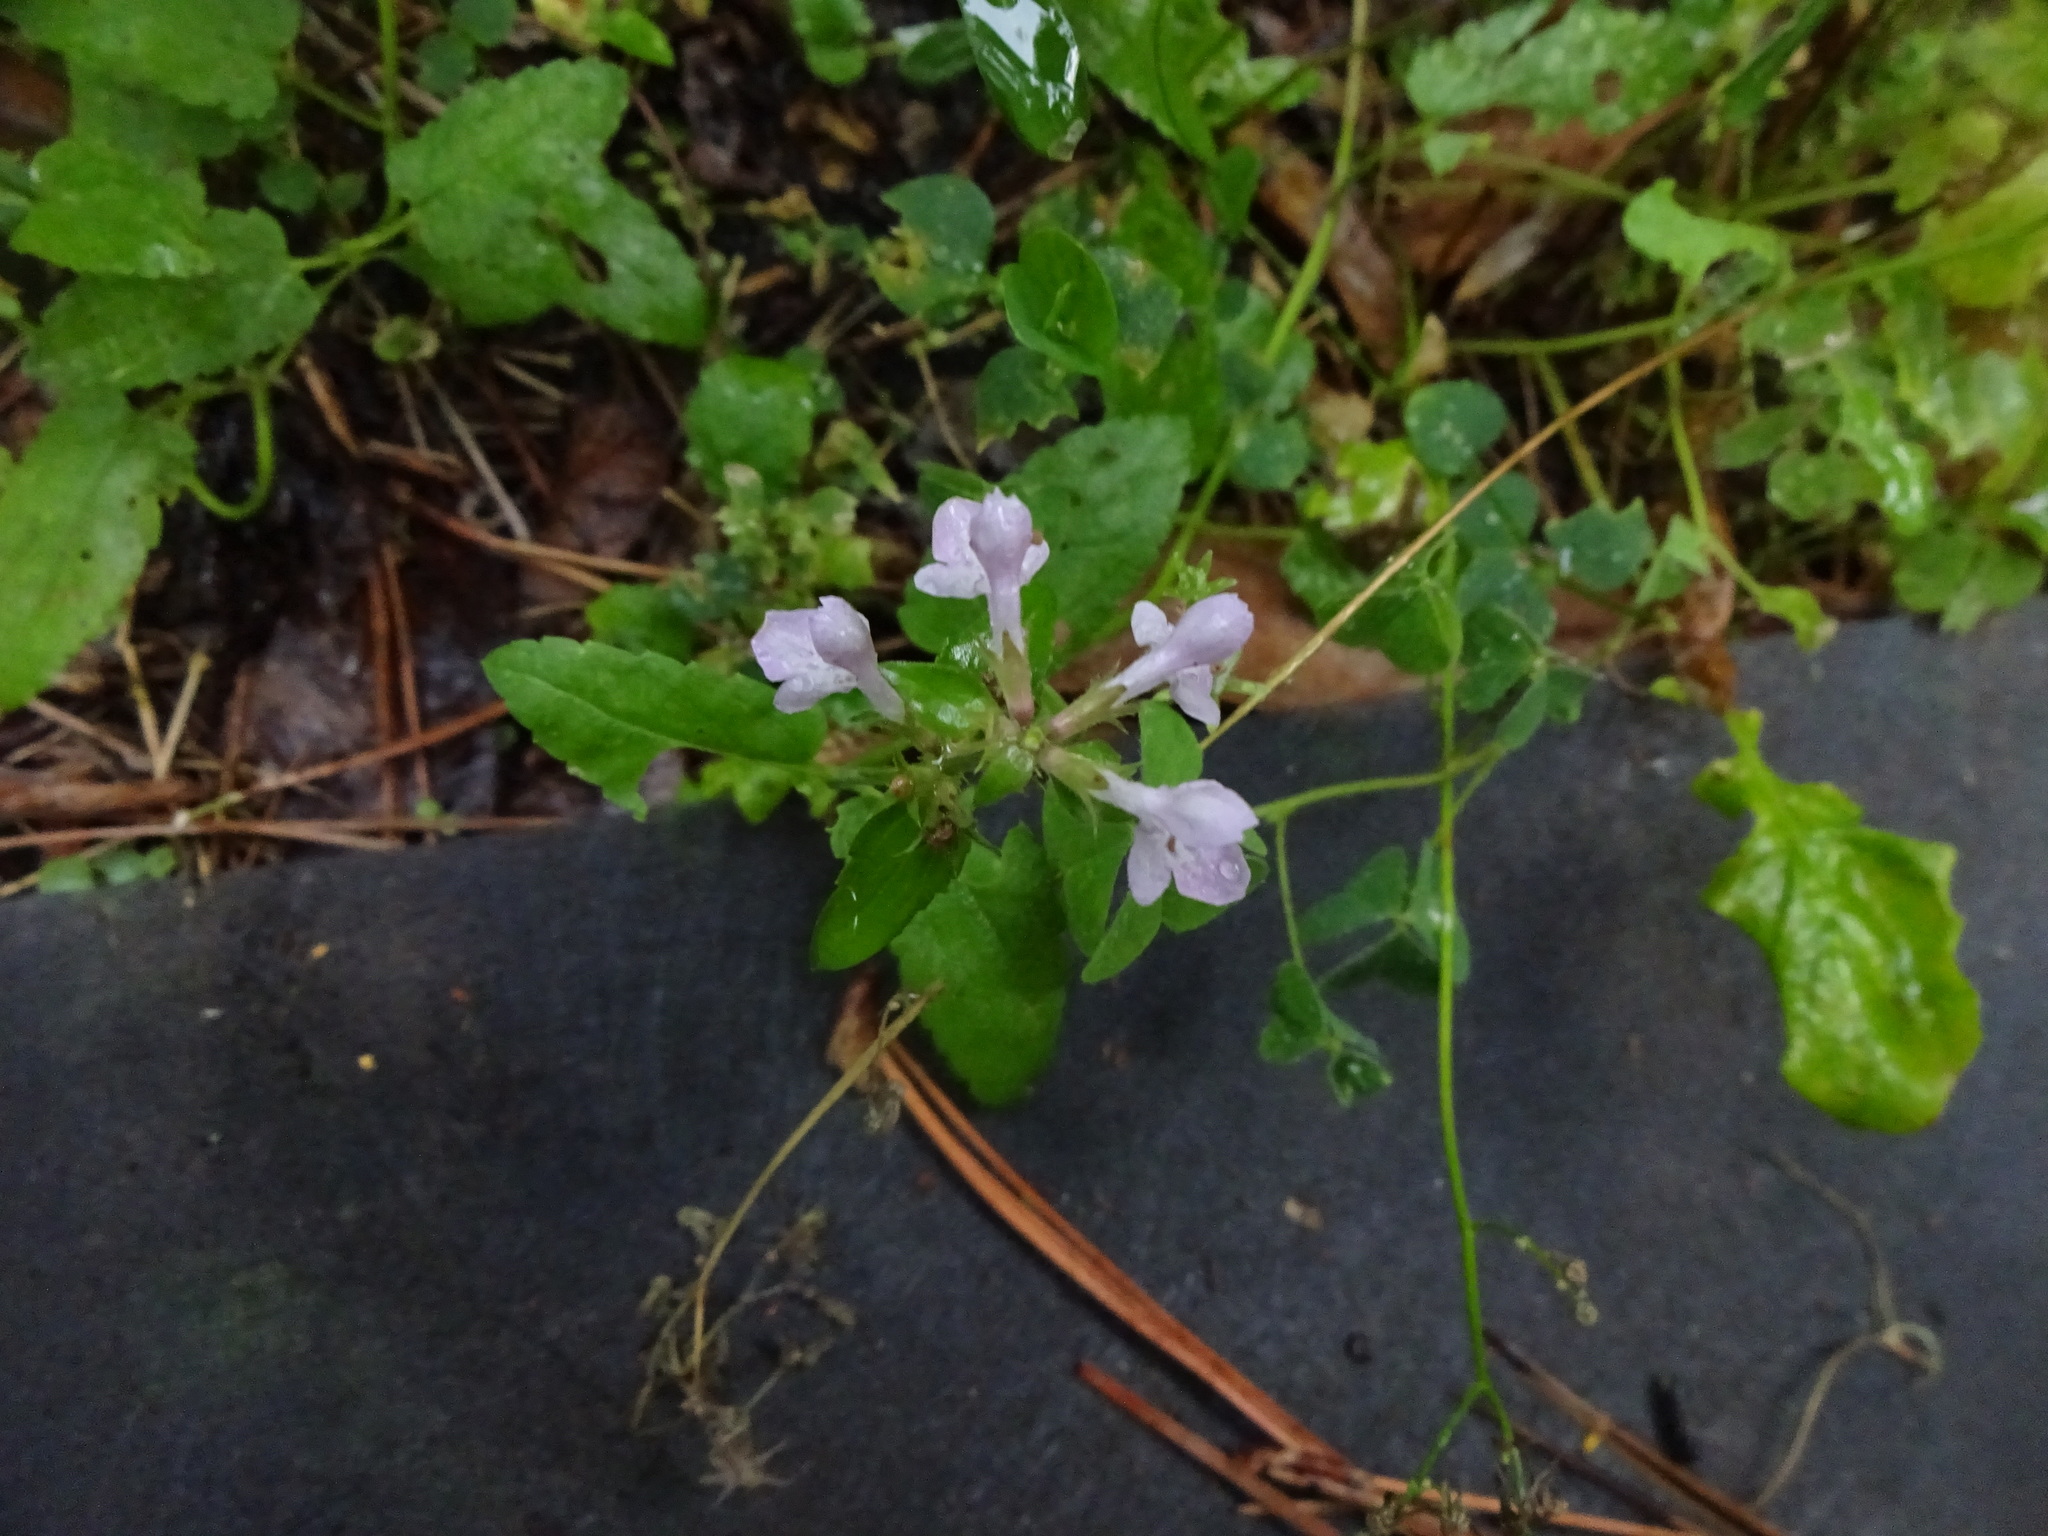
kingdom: Plantae
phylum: Tracheophyta
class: Magnoliopsida
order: Lamiales
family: Lamiaceae
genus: Stachys
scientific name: Stachys floridana
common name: Florida betony
